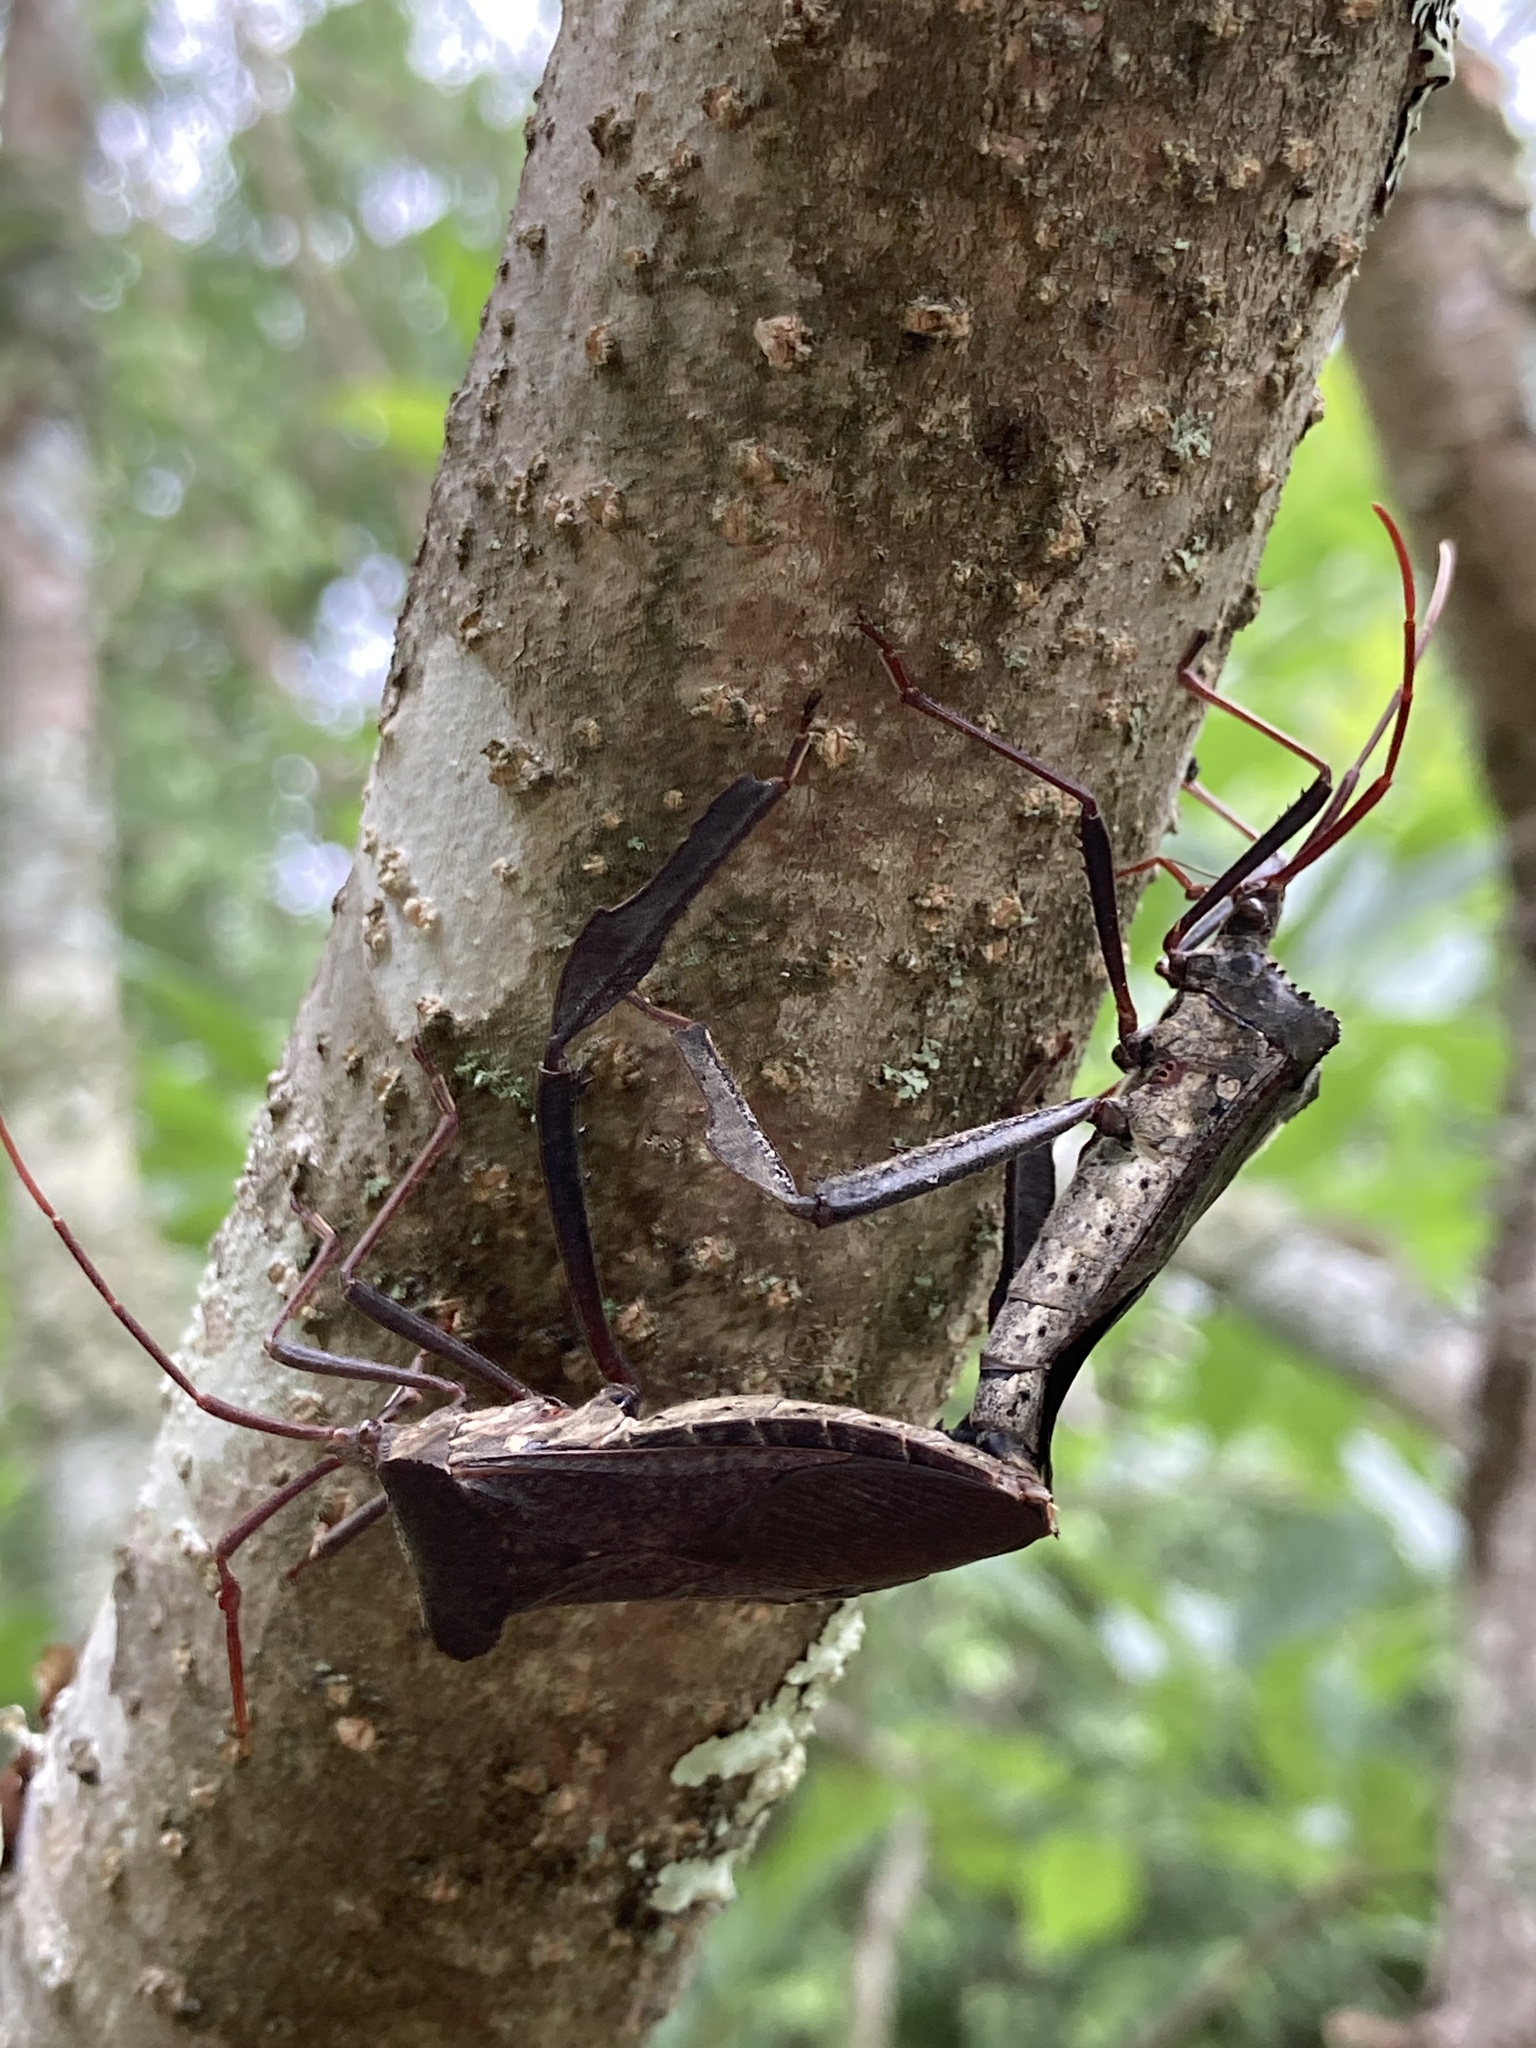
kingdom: Animalia
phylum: Arthropoda
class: Insecta
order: Hemiptera
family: Coreidae
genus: Acanthocephala
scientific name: Acanthocephala declivis
